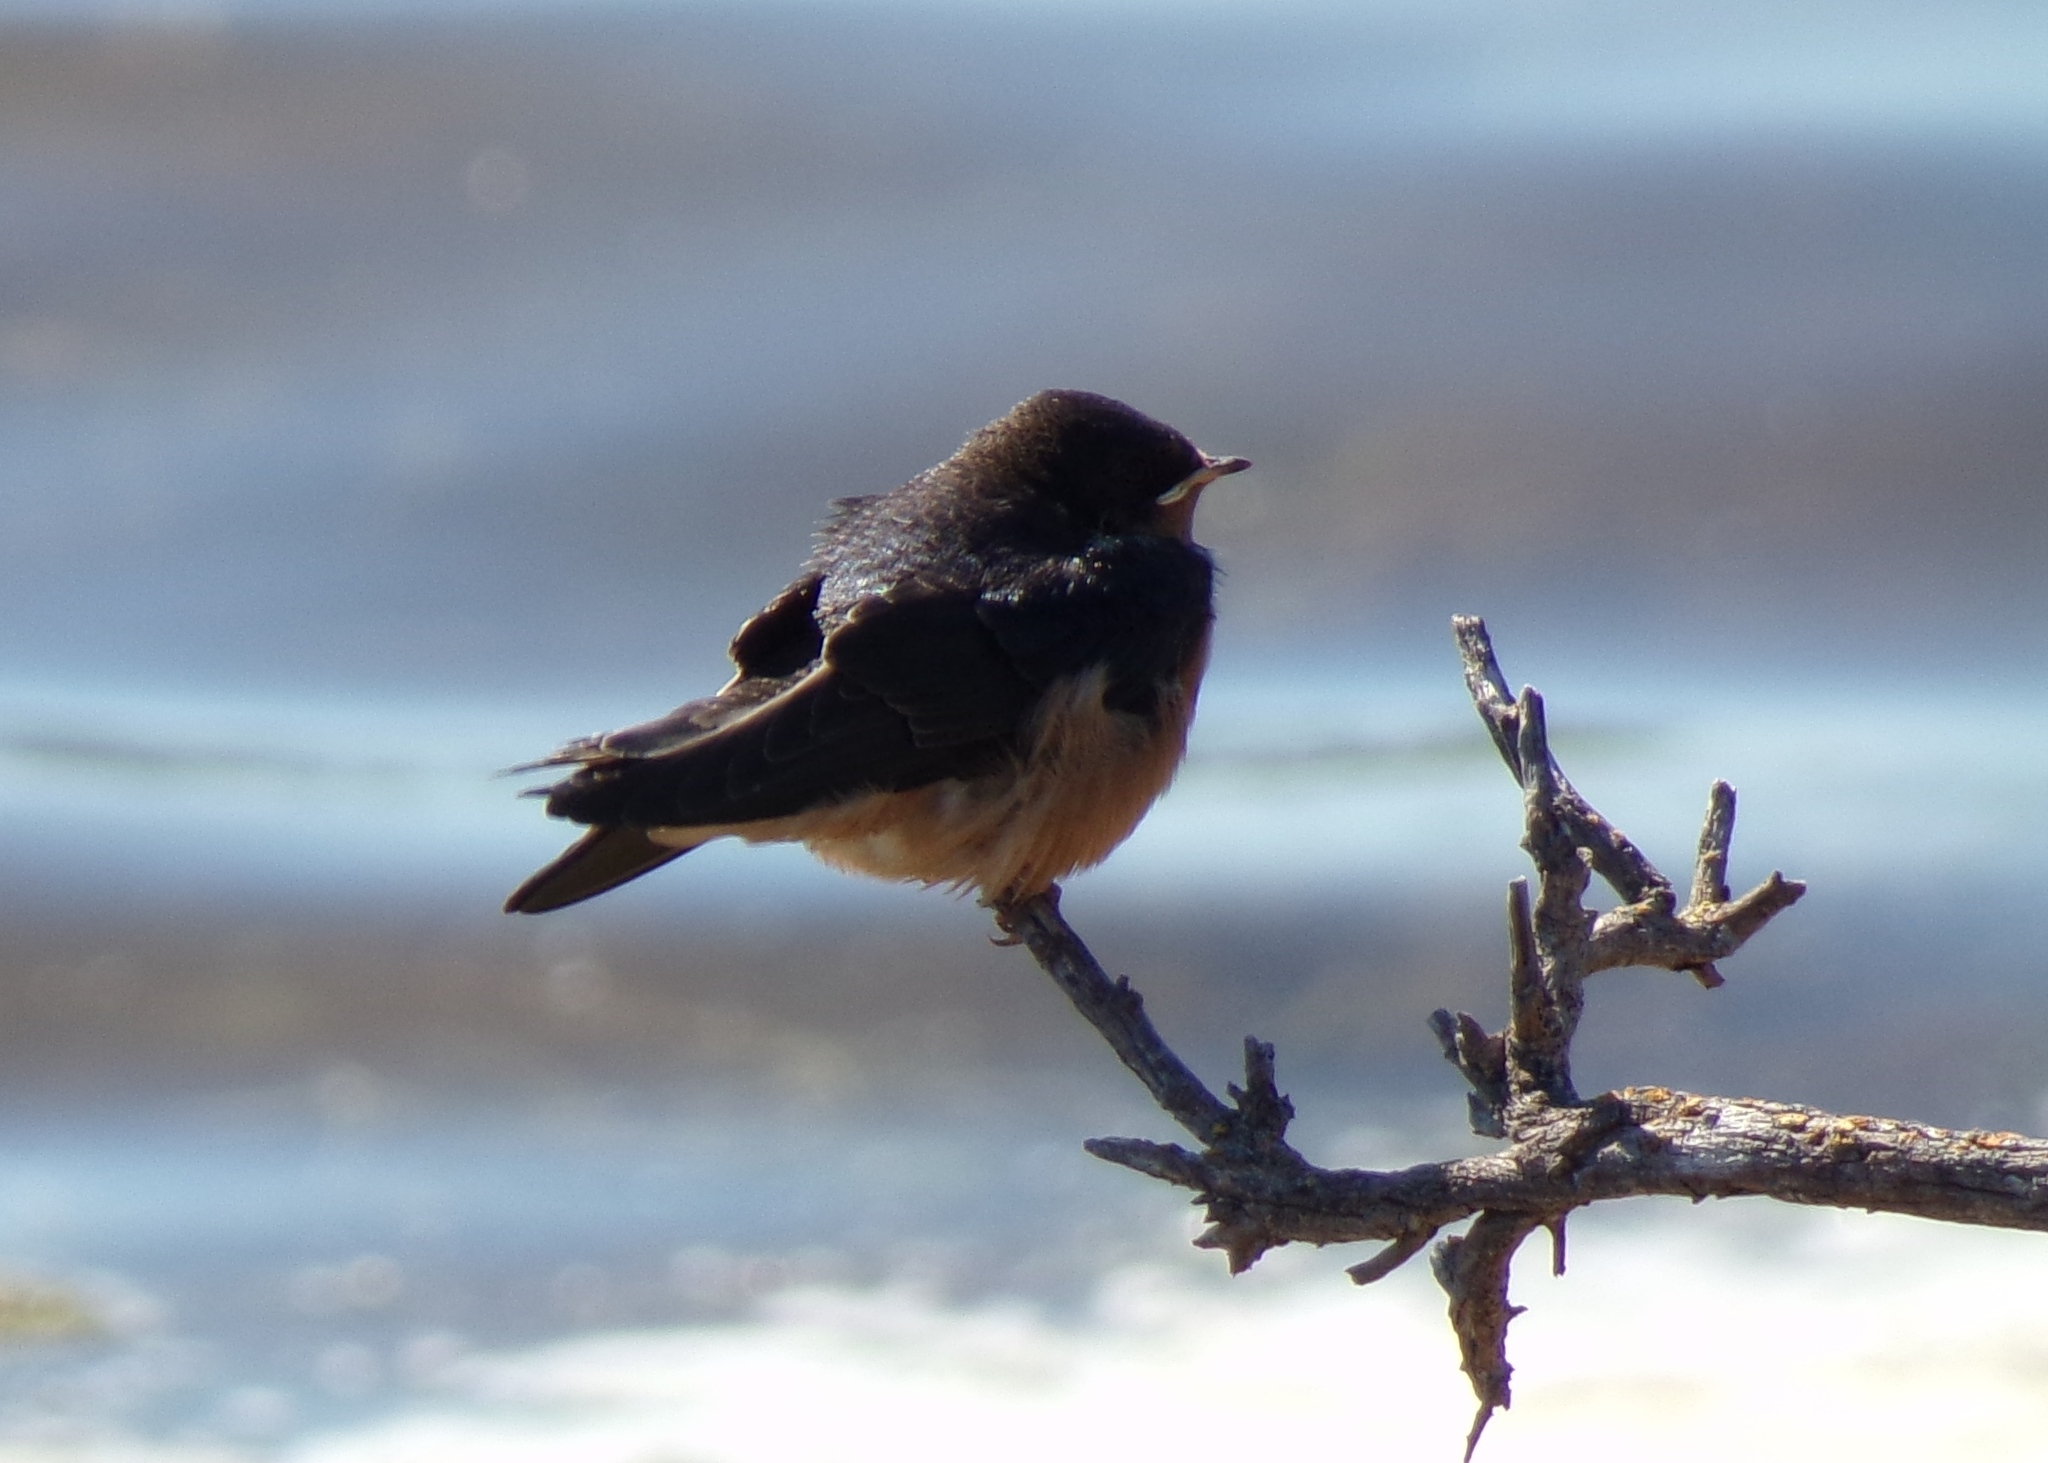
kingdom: Animalia
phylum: Chordata
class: Aves
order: Passeriformes
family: Hirundinidae
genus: Hirundo
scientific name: Hirundo rustica
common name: Barn swallow
